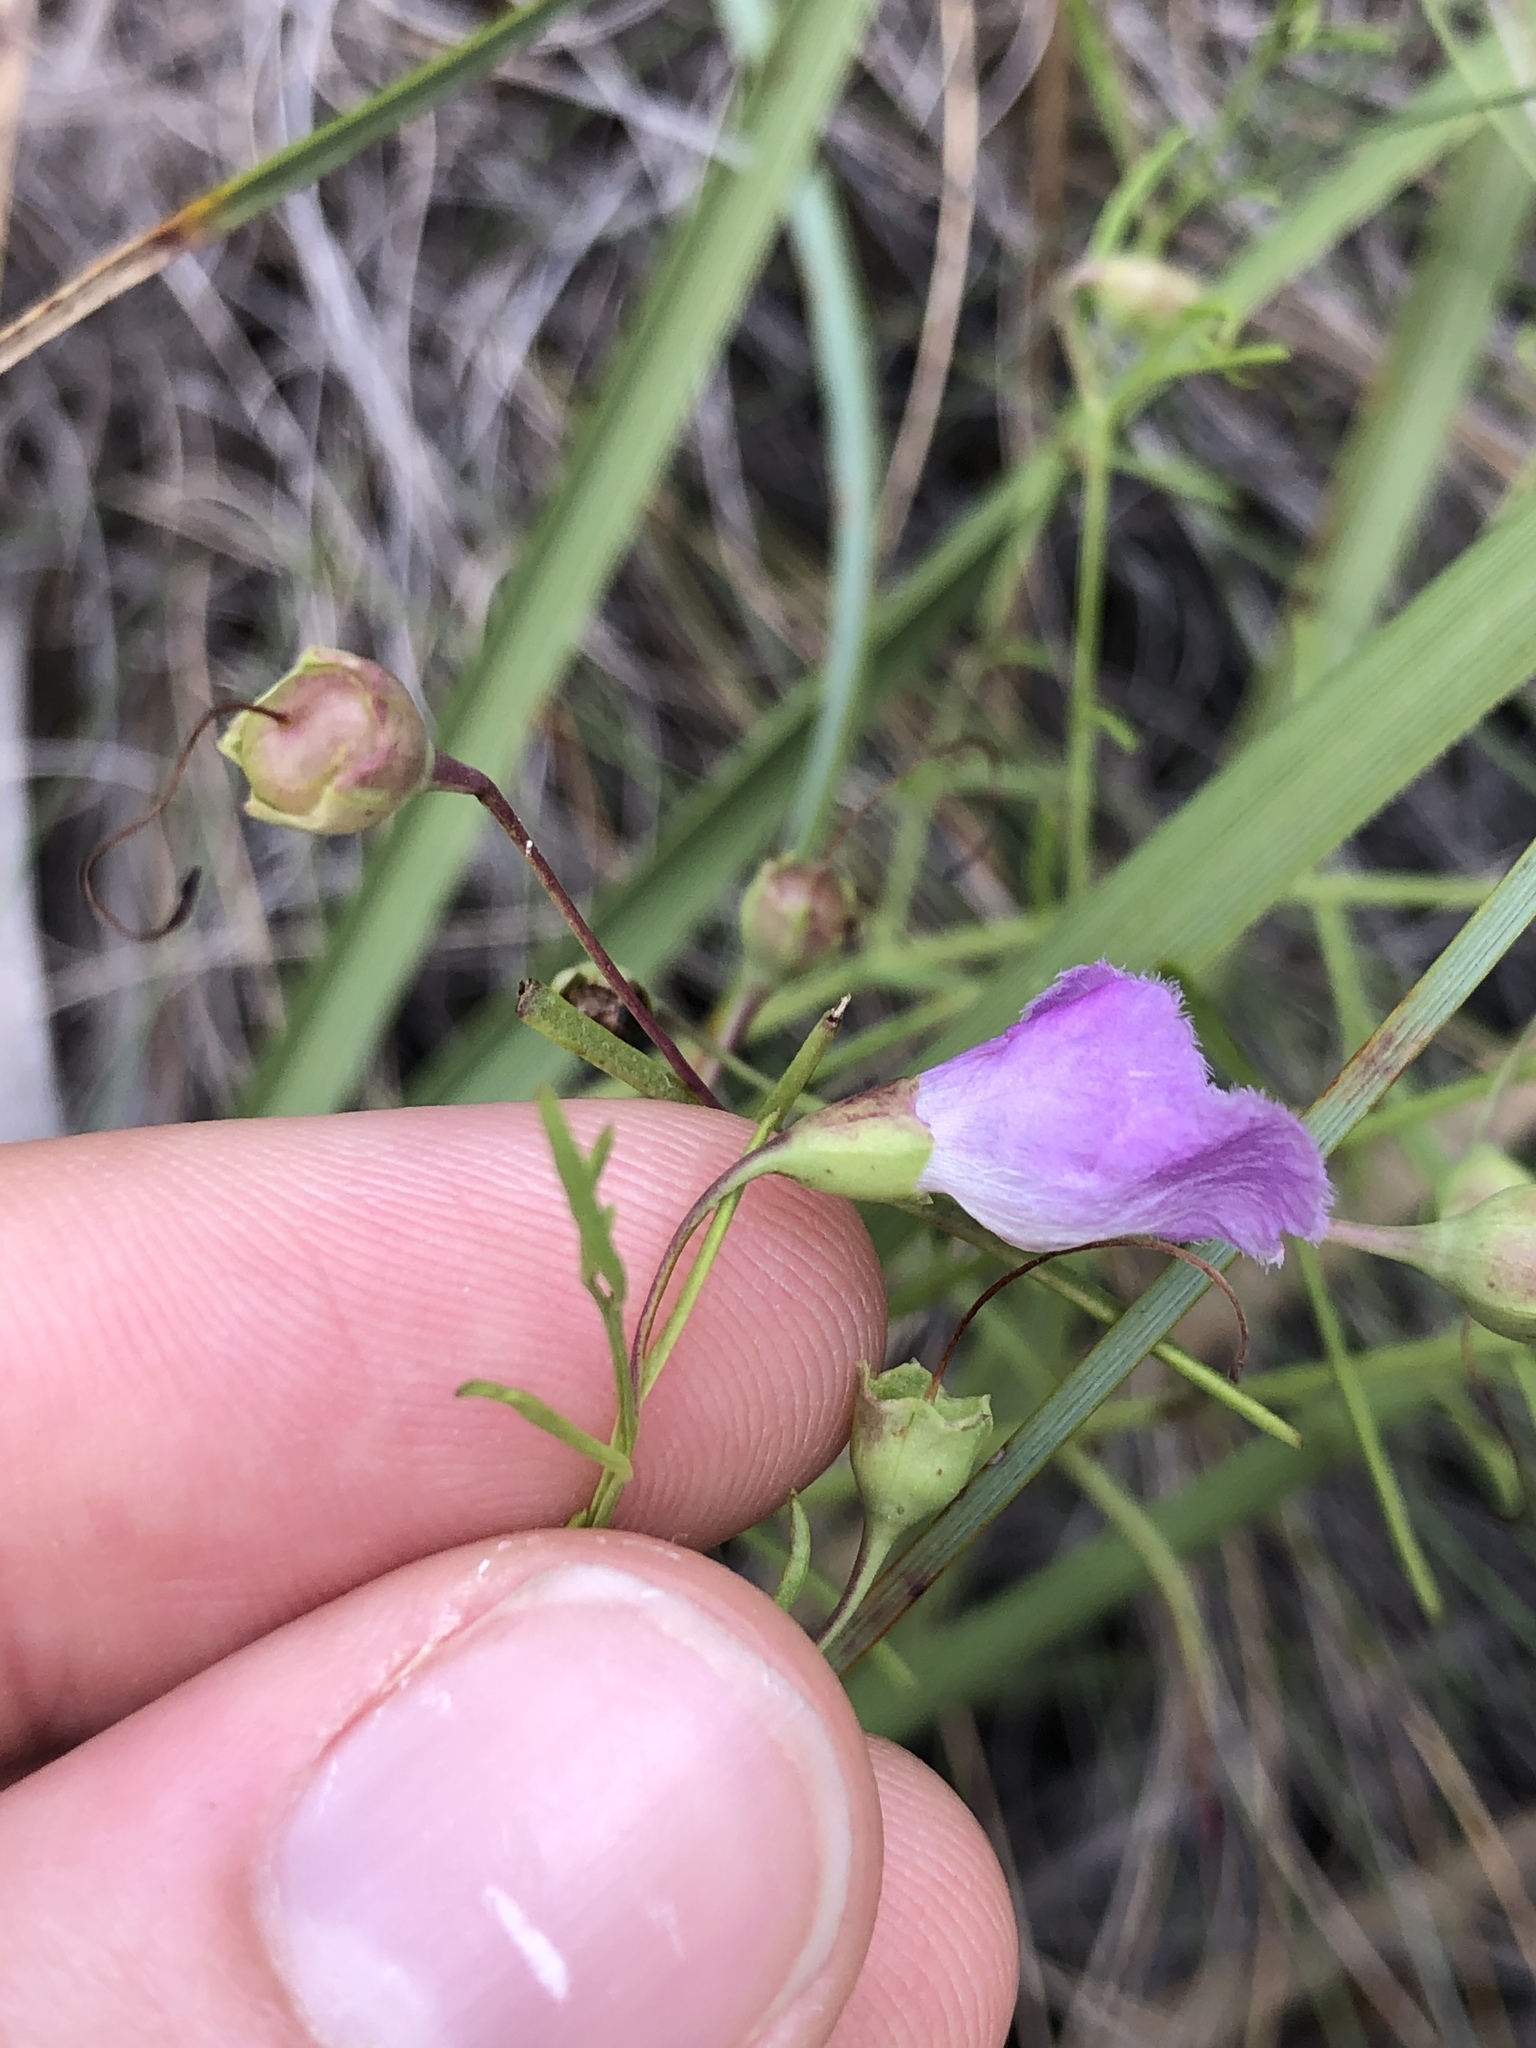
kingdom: Plantae
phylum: Tracheophyta
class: Magnoliopsida
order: Lamiales
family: Orobanchaceae
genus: Agalinis
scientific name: Agalinis edwardsiana
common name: Plateau-gerardia
